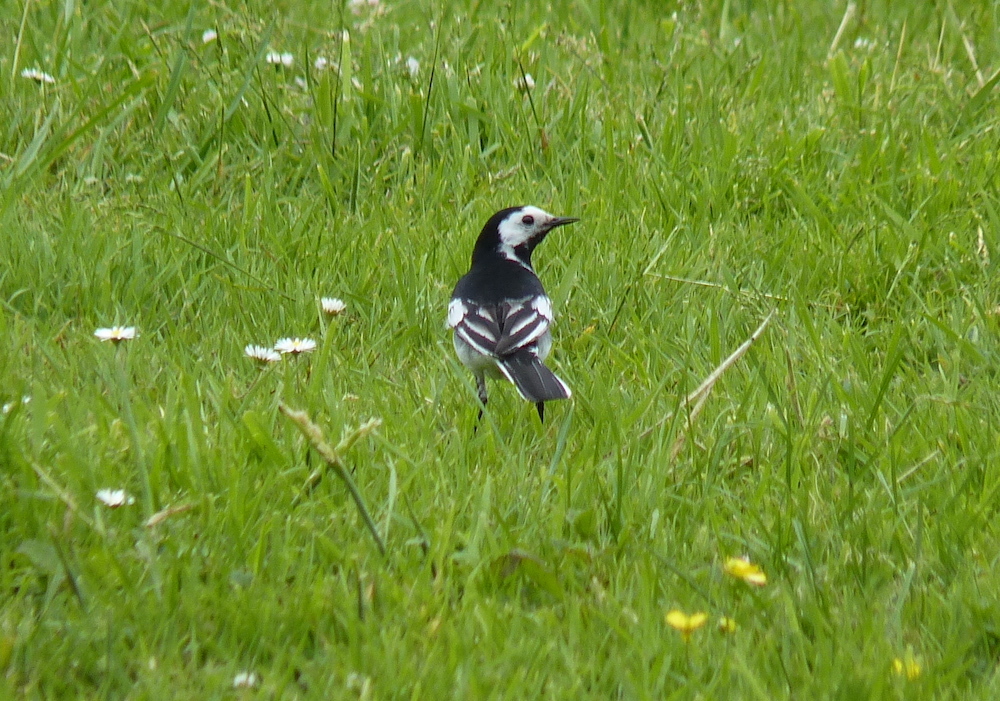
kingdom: Animalia
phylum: Chordata
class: Aves
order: Passeriformes
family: Motacillidae
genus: Motacilla
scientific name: Motacilla alba
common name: White wagtail
